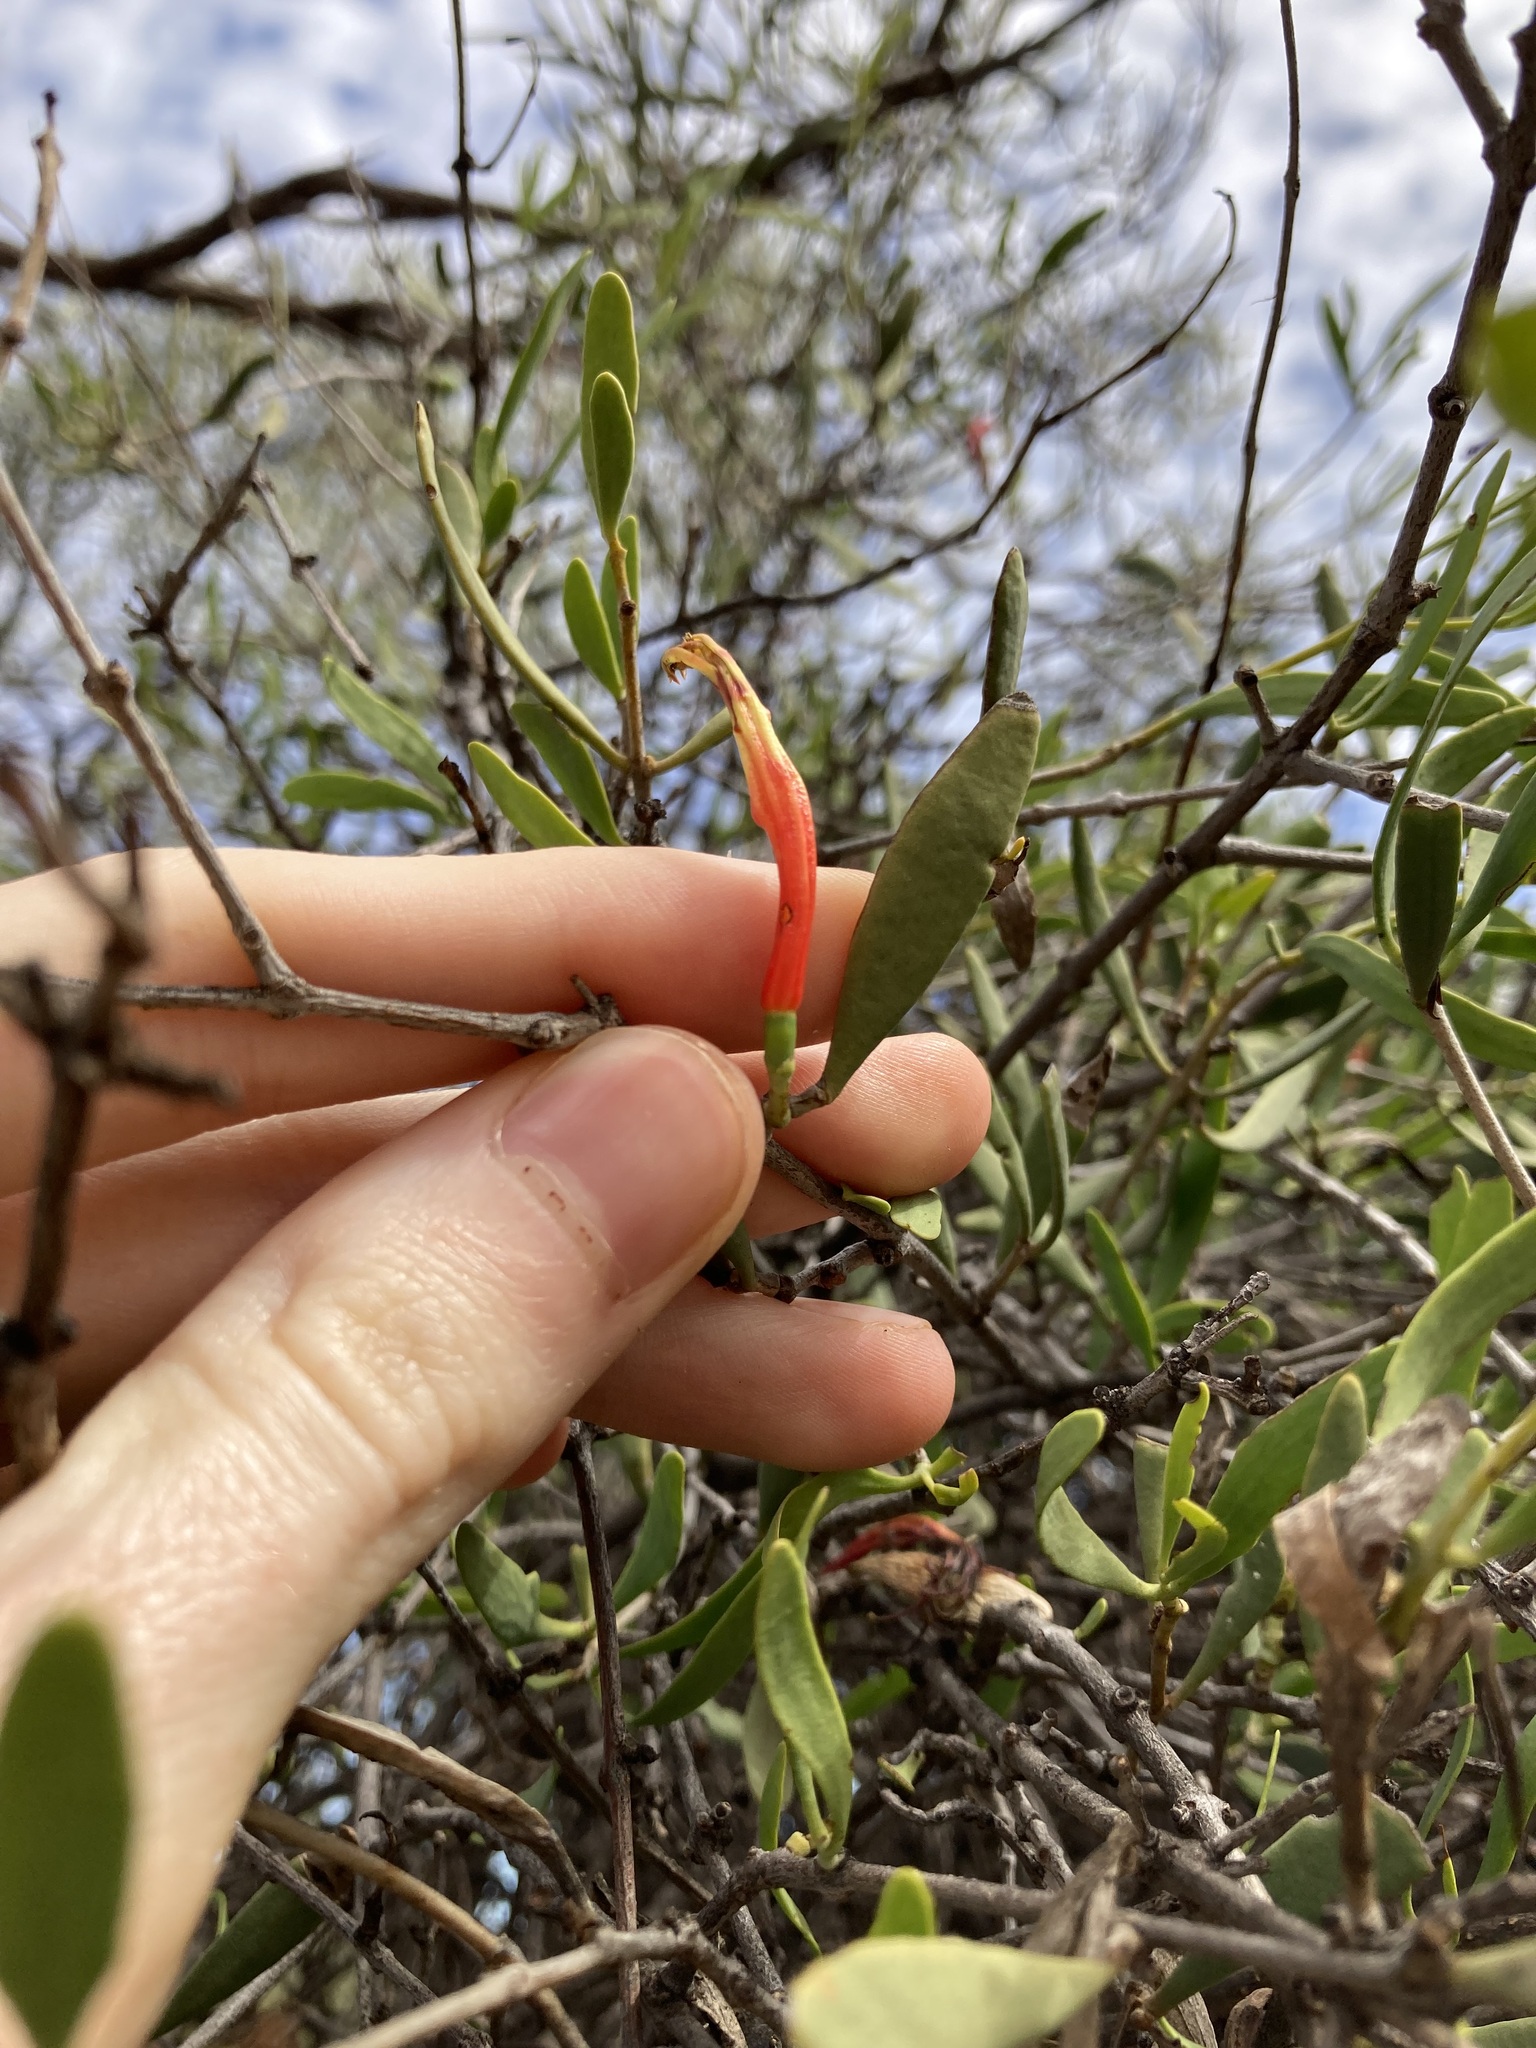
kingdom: Plantae
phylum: Tracheophyta
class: Magnoliopsida
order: Santalales
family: Loranthaceae
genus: Lysiana
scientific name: Lysiana exocarpi
